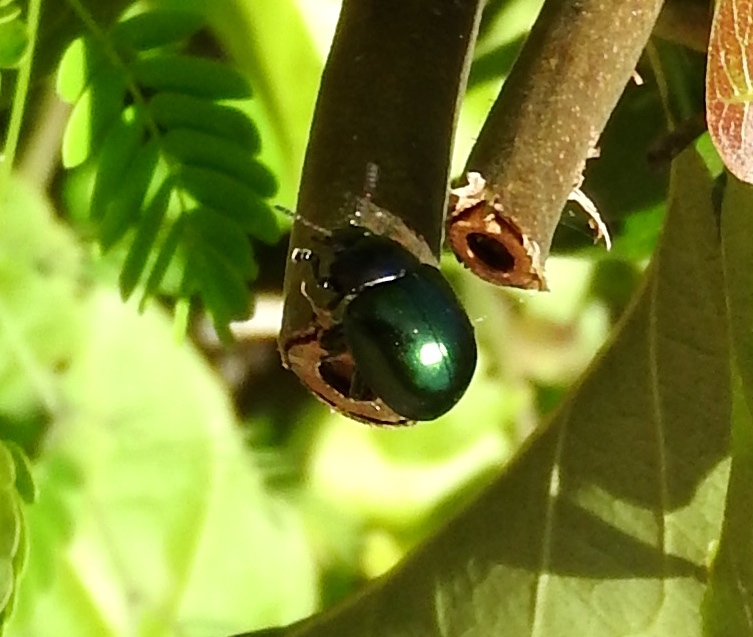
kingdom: Animalia
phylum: Arthropoda
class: Insecta
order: Coleoptera
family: Chrysomelidae
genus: Leptinotarsa
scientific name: Leptinotarsa haldemani
